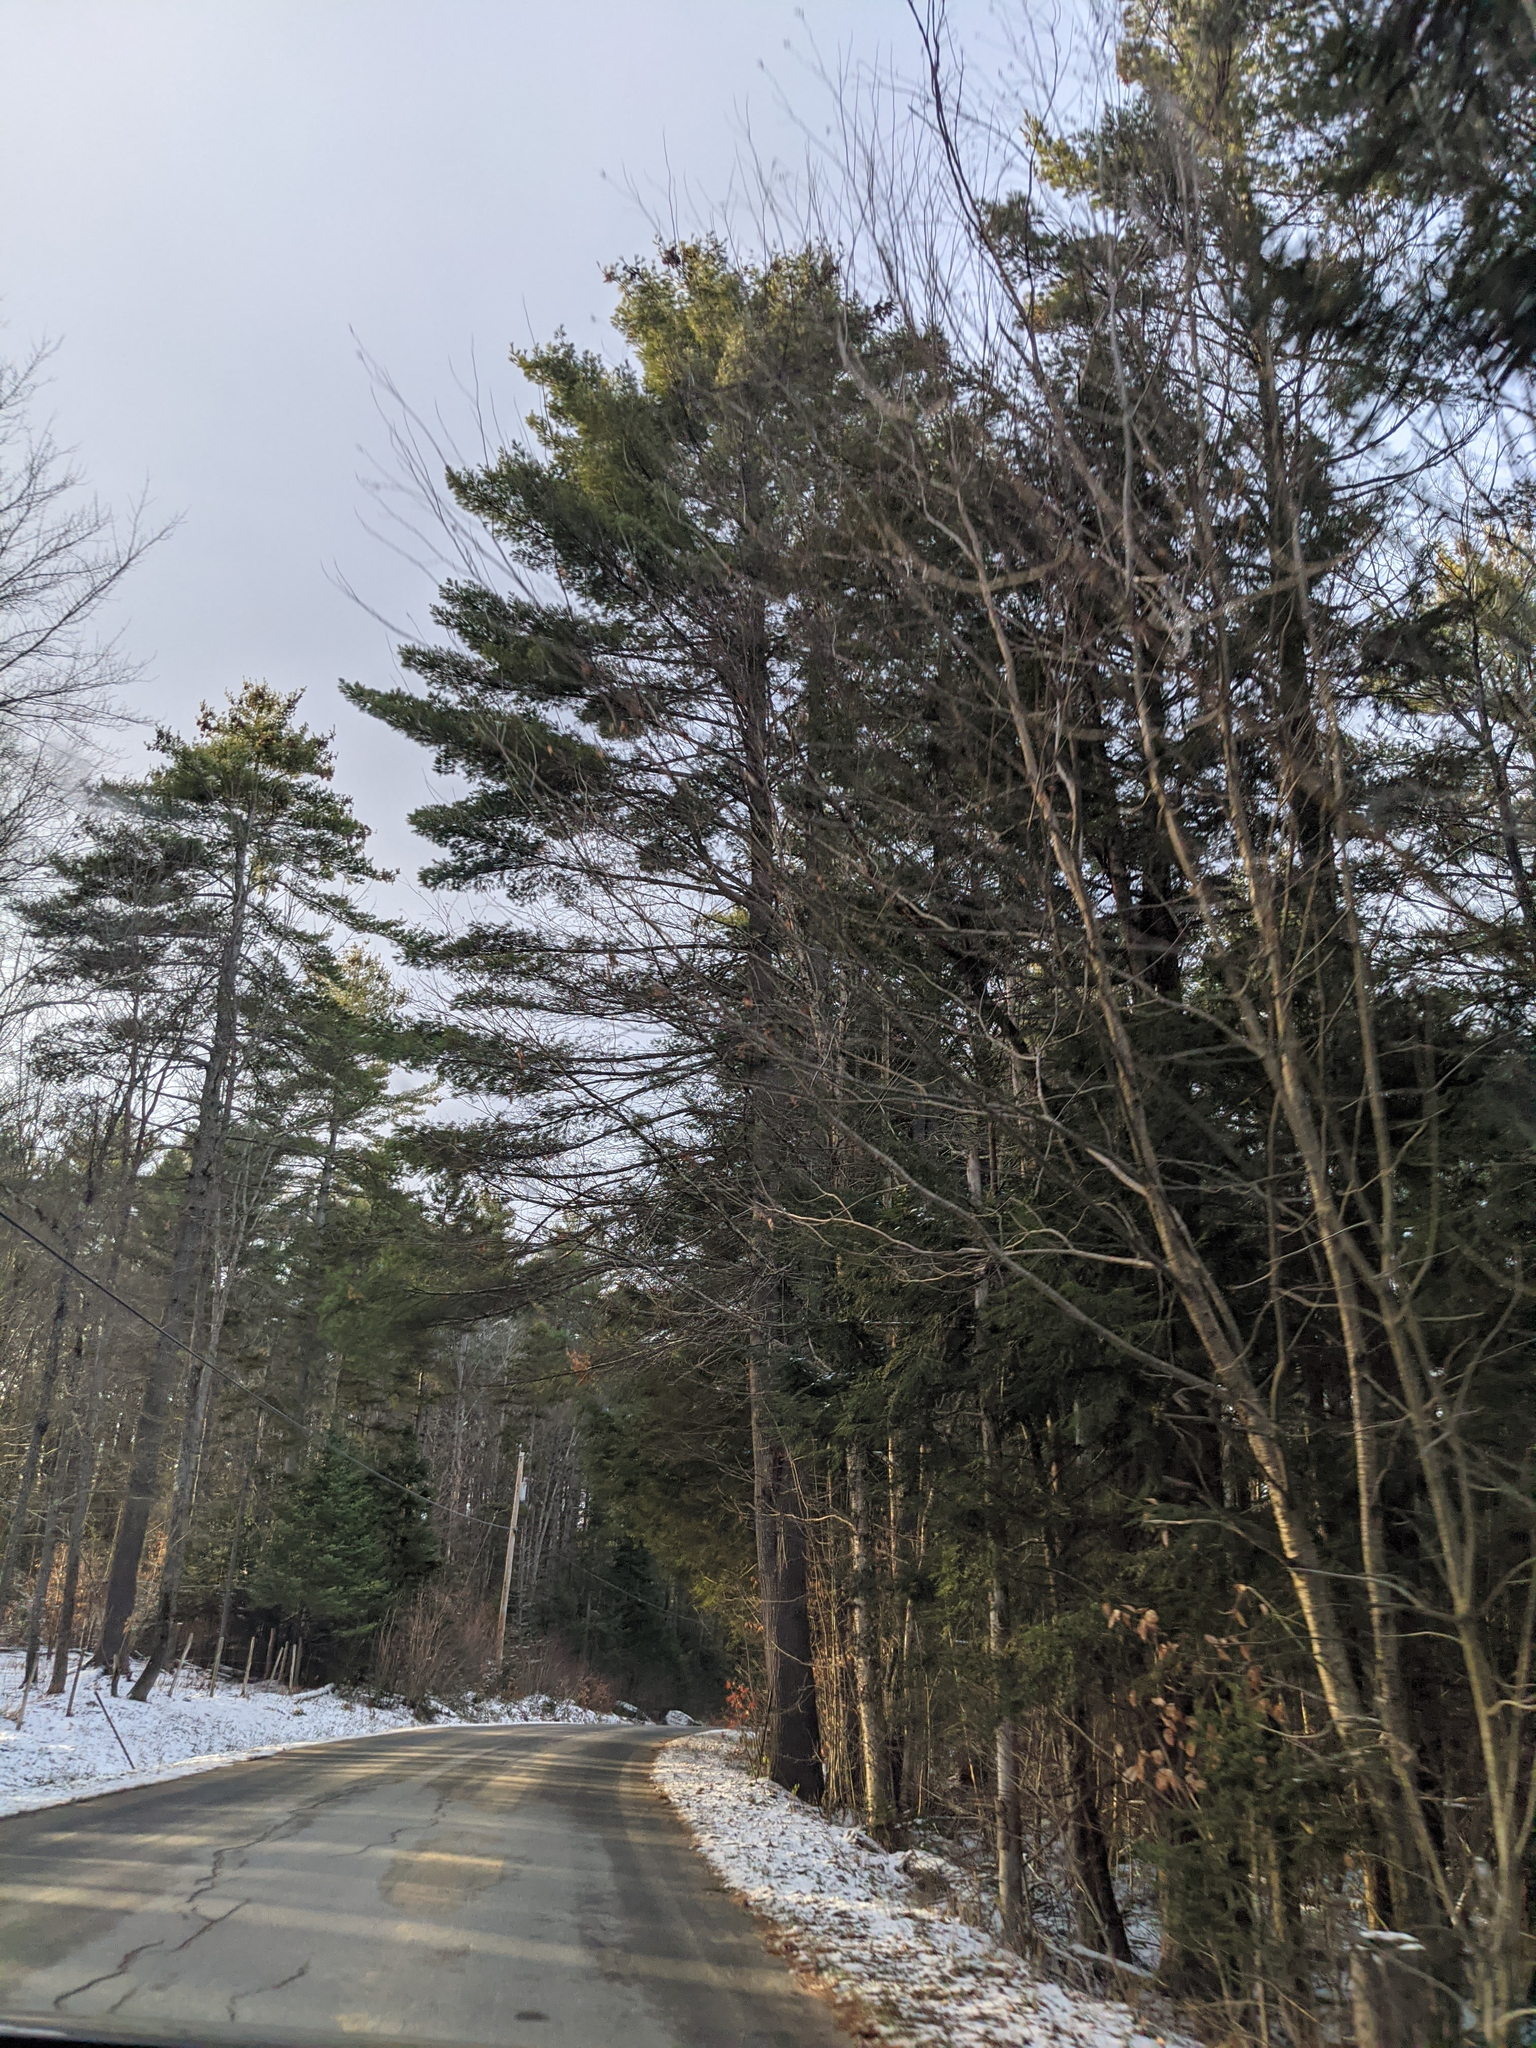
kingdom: Plantae
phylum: Tracheophyta
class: Pinopsida
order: Pinales
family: Pinaceae
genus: Pinus
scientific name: Pinus strobus
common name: Weymouth pine
